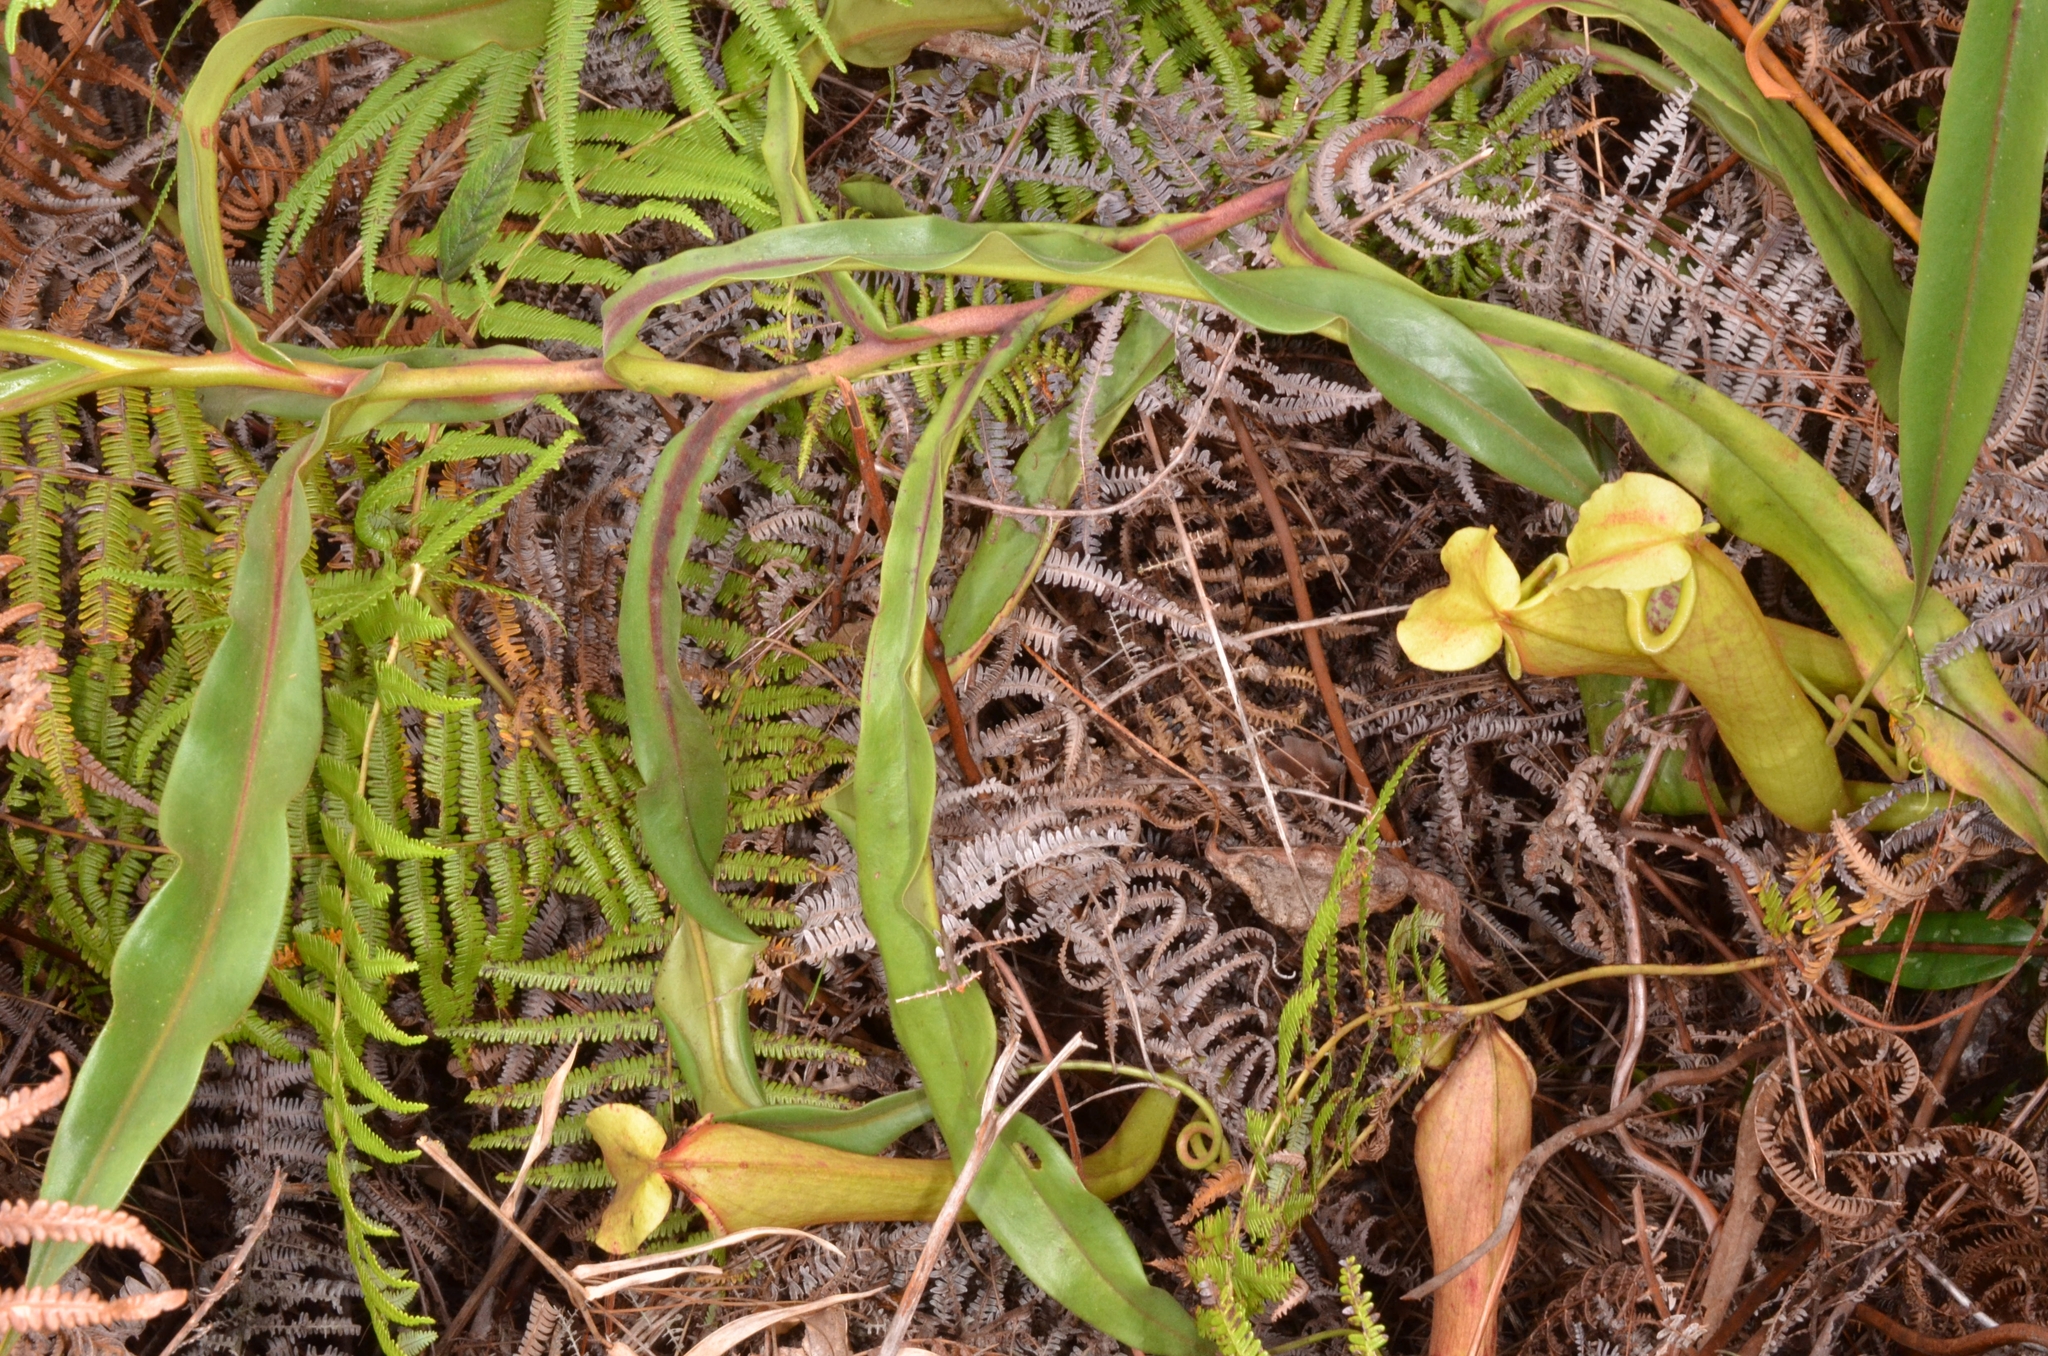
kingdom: Plantae
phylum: Tracheophyta
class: Magnoliopsida
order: Caryophyllales
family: Nepenthaceae
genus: Nepenthes
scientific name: Nepenthes smilesii
